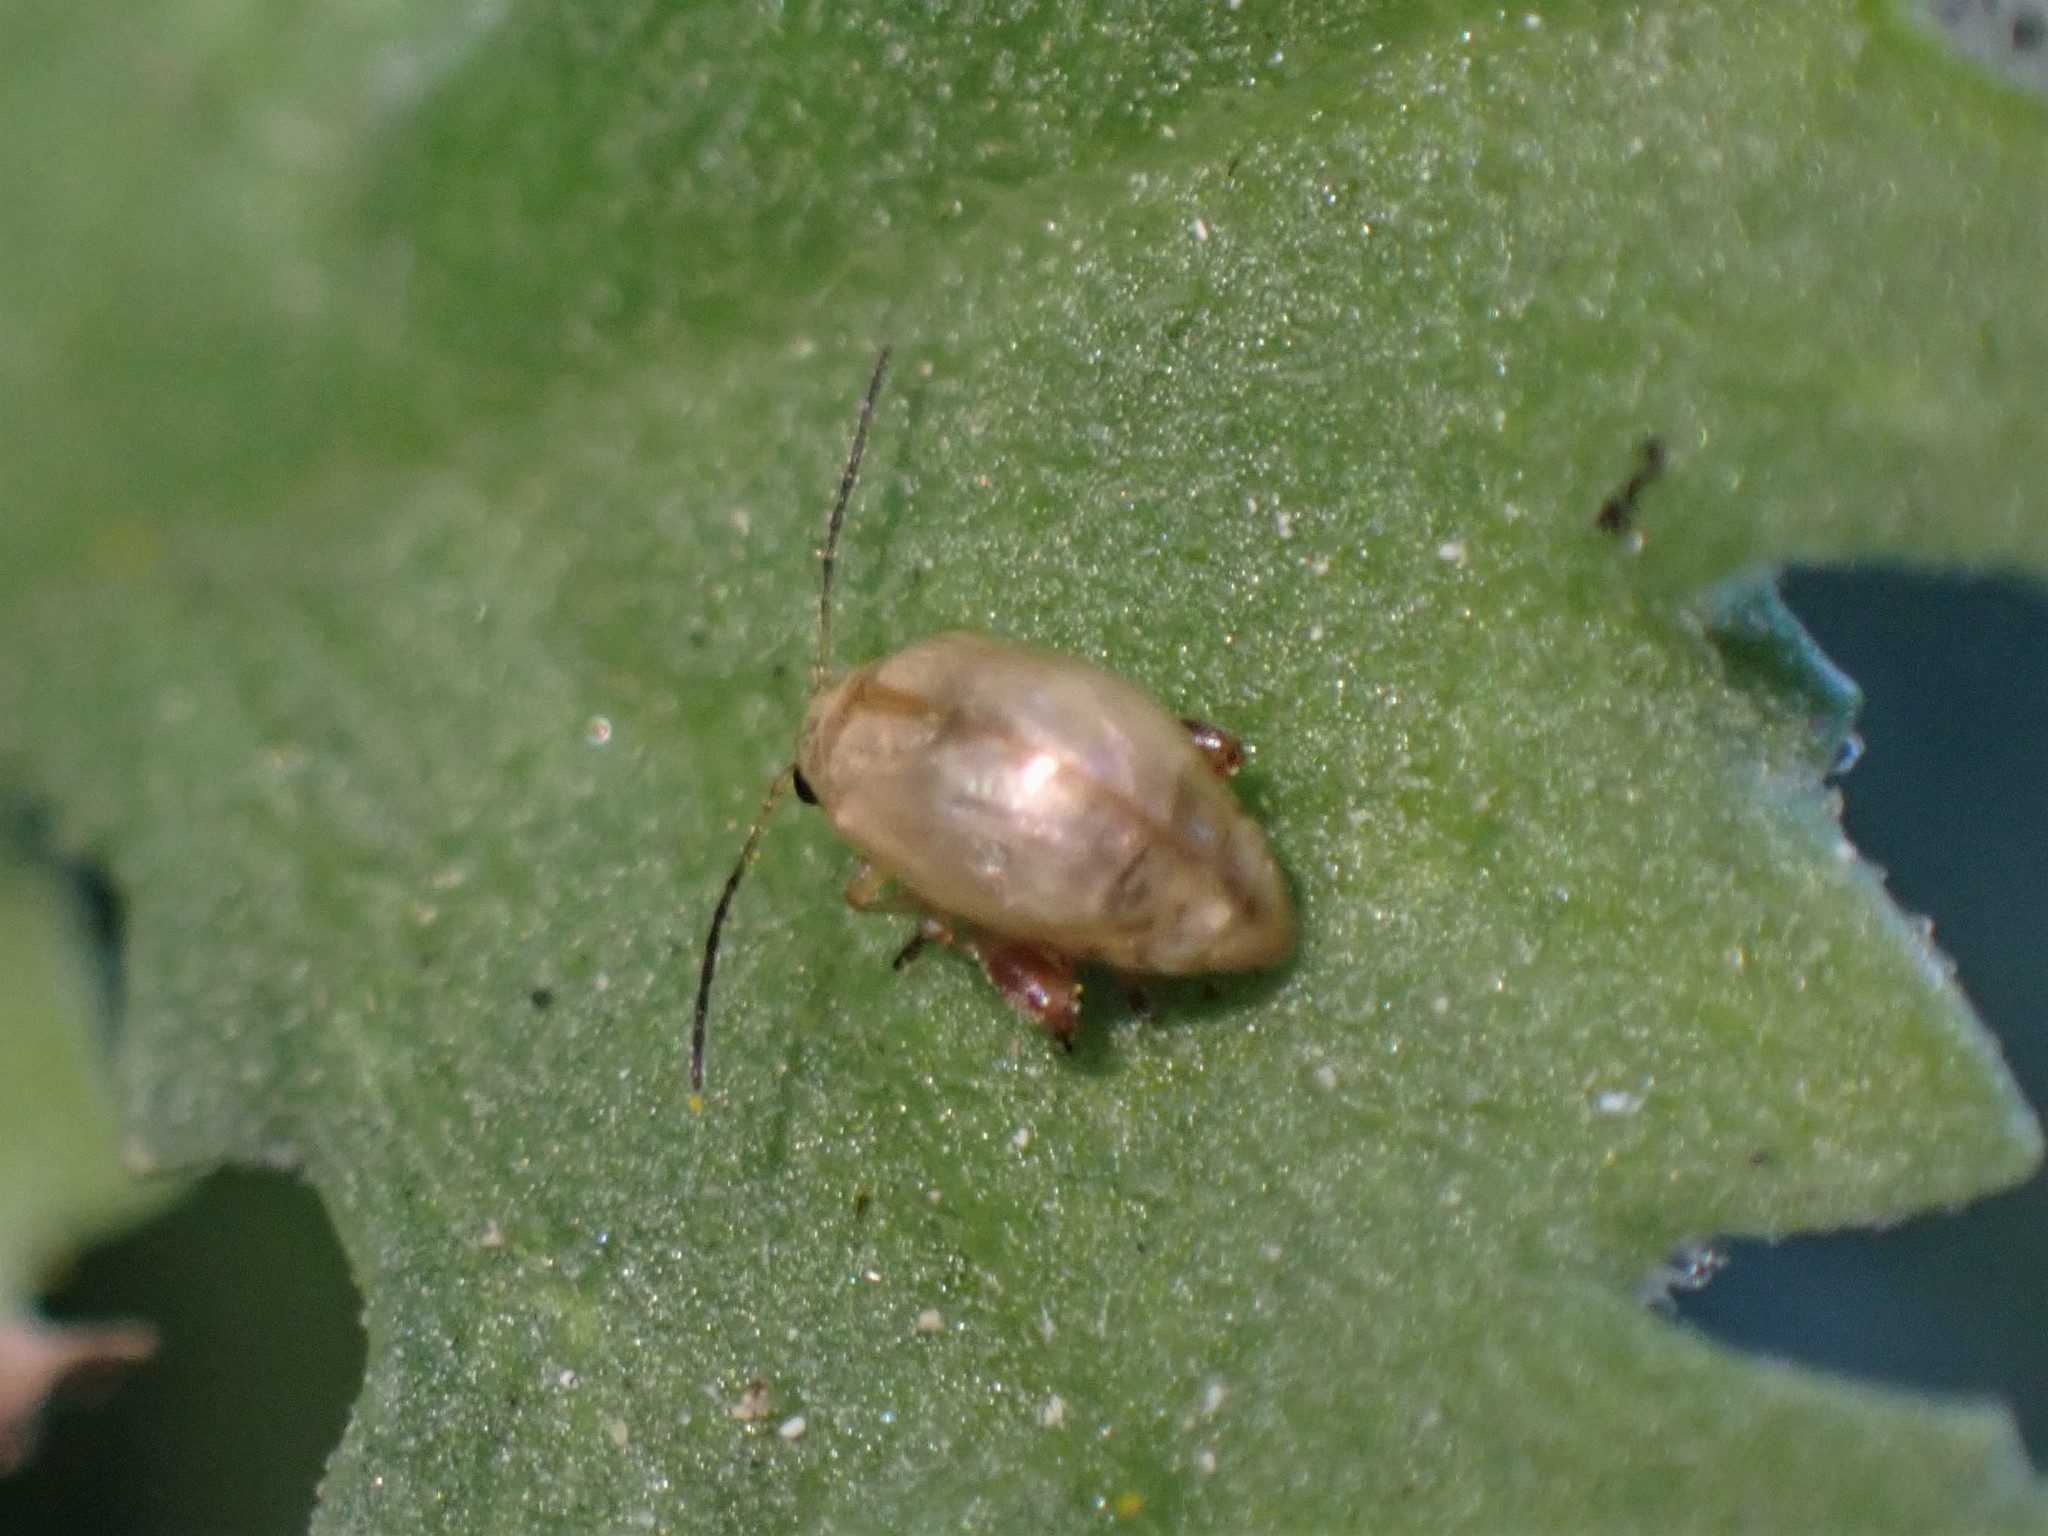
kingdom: Animalia
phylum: Arthropoda
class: Insecta
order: Coleoptera
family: Chrysomelidae
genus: Longitarsus
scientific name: Longitarsus jacobaeae
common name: Tansy ragwort flea beetle
